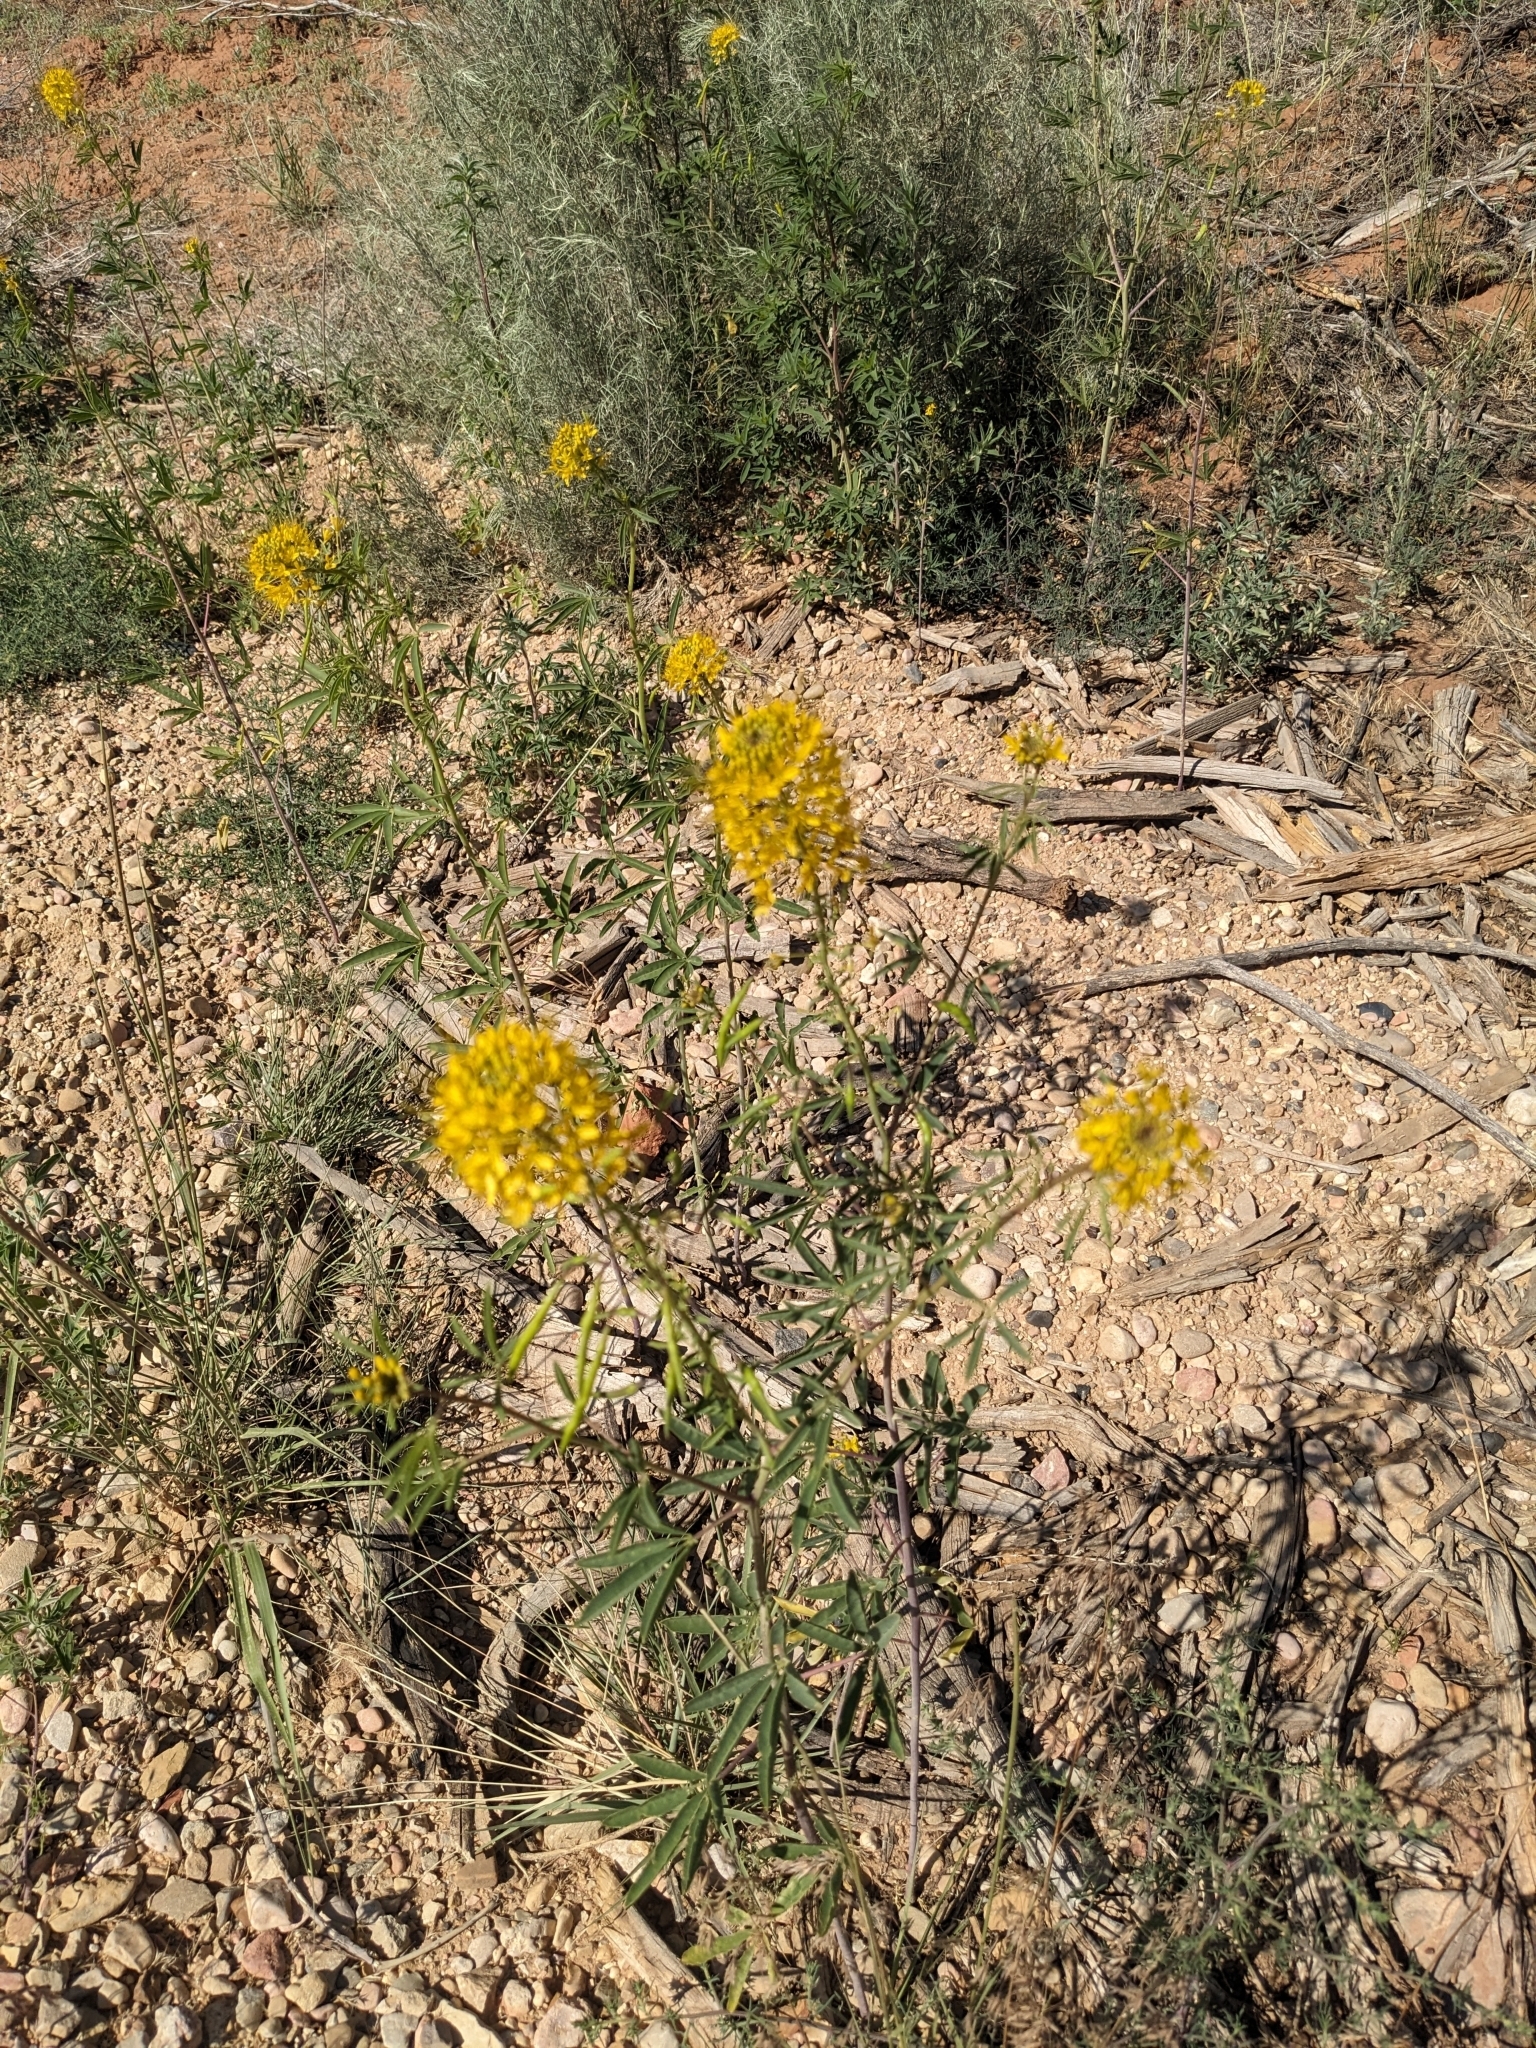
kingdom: Plantae
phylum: Tracheophyta
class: Magnoliopsida
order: Brassicales
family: Cleomaceae
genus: Cleomella
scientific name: Cleomella lutea
